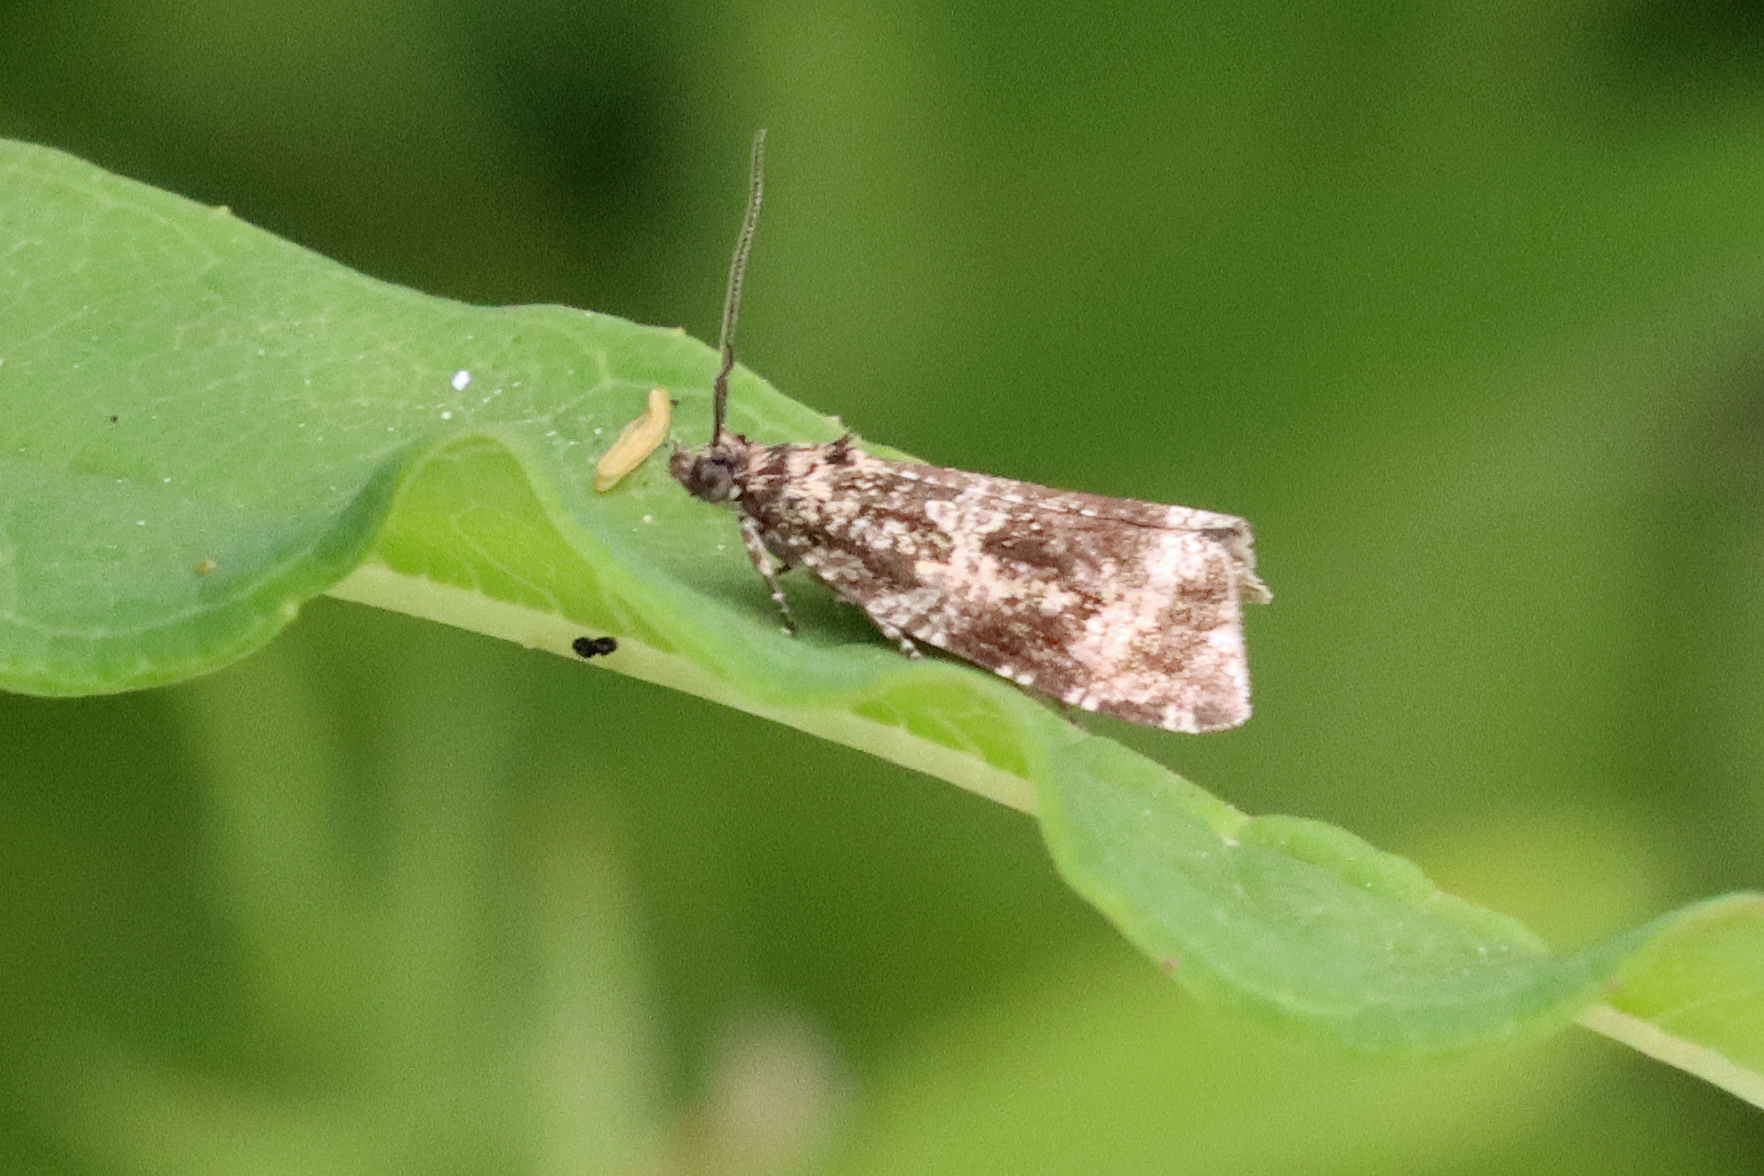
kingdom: Animalia
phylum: Arthropoda
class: Insecta
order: Lepidoptera
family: Tortricidae
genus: Syricoris
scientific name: Syricoris lacunana
